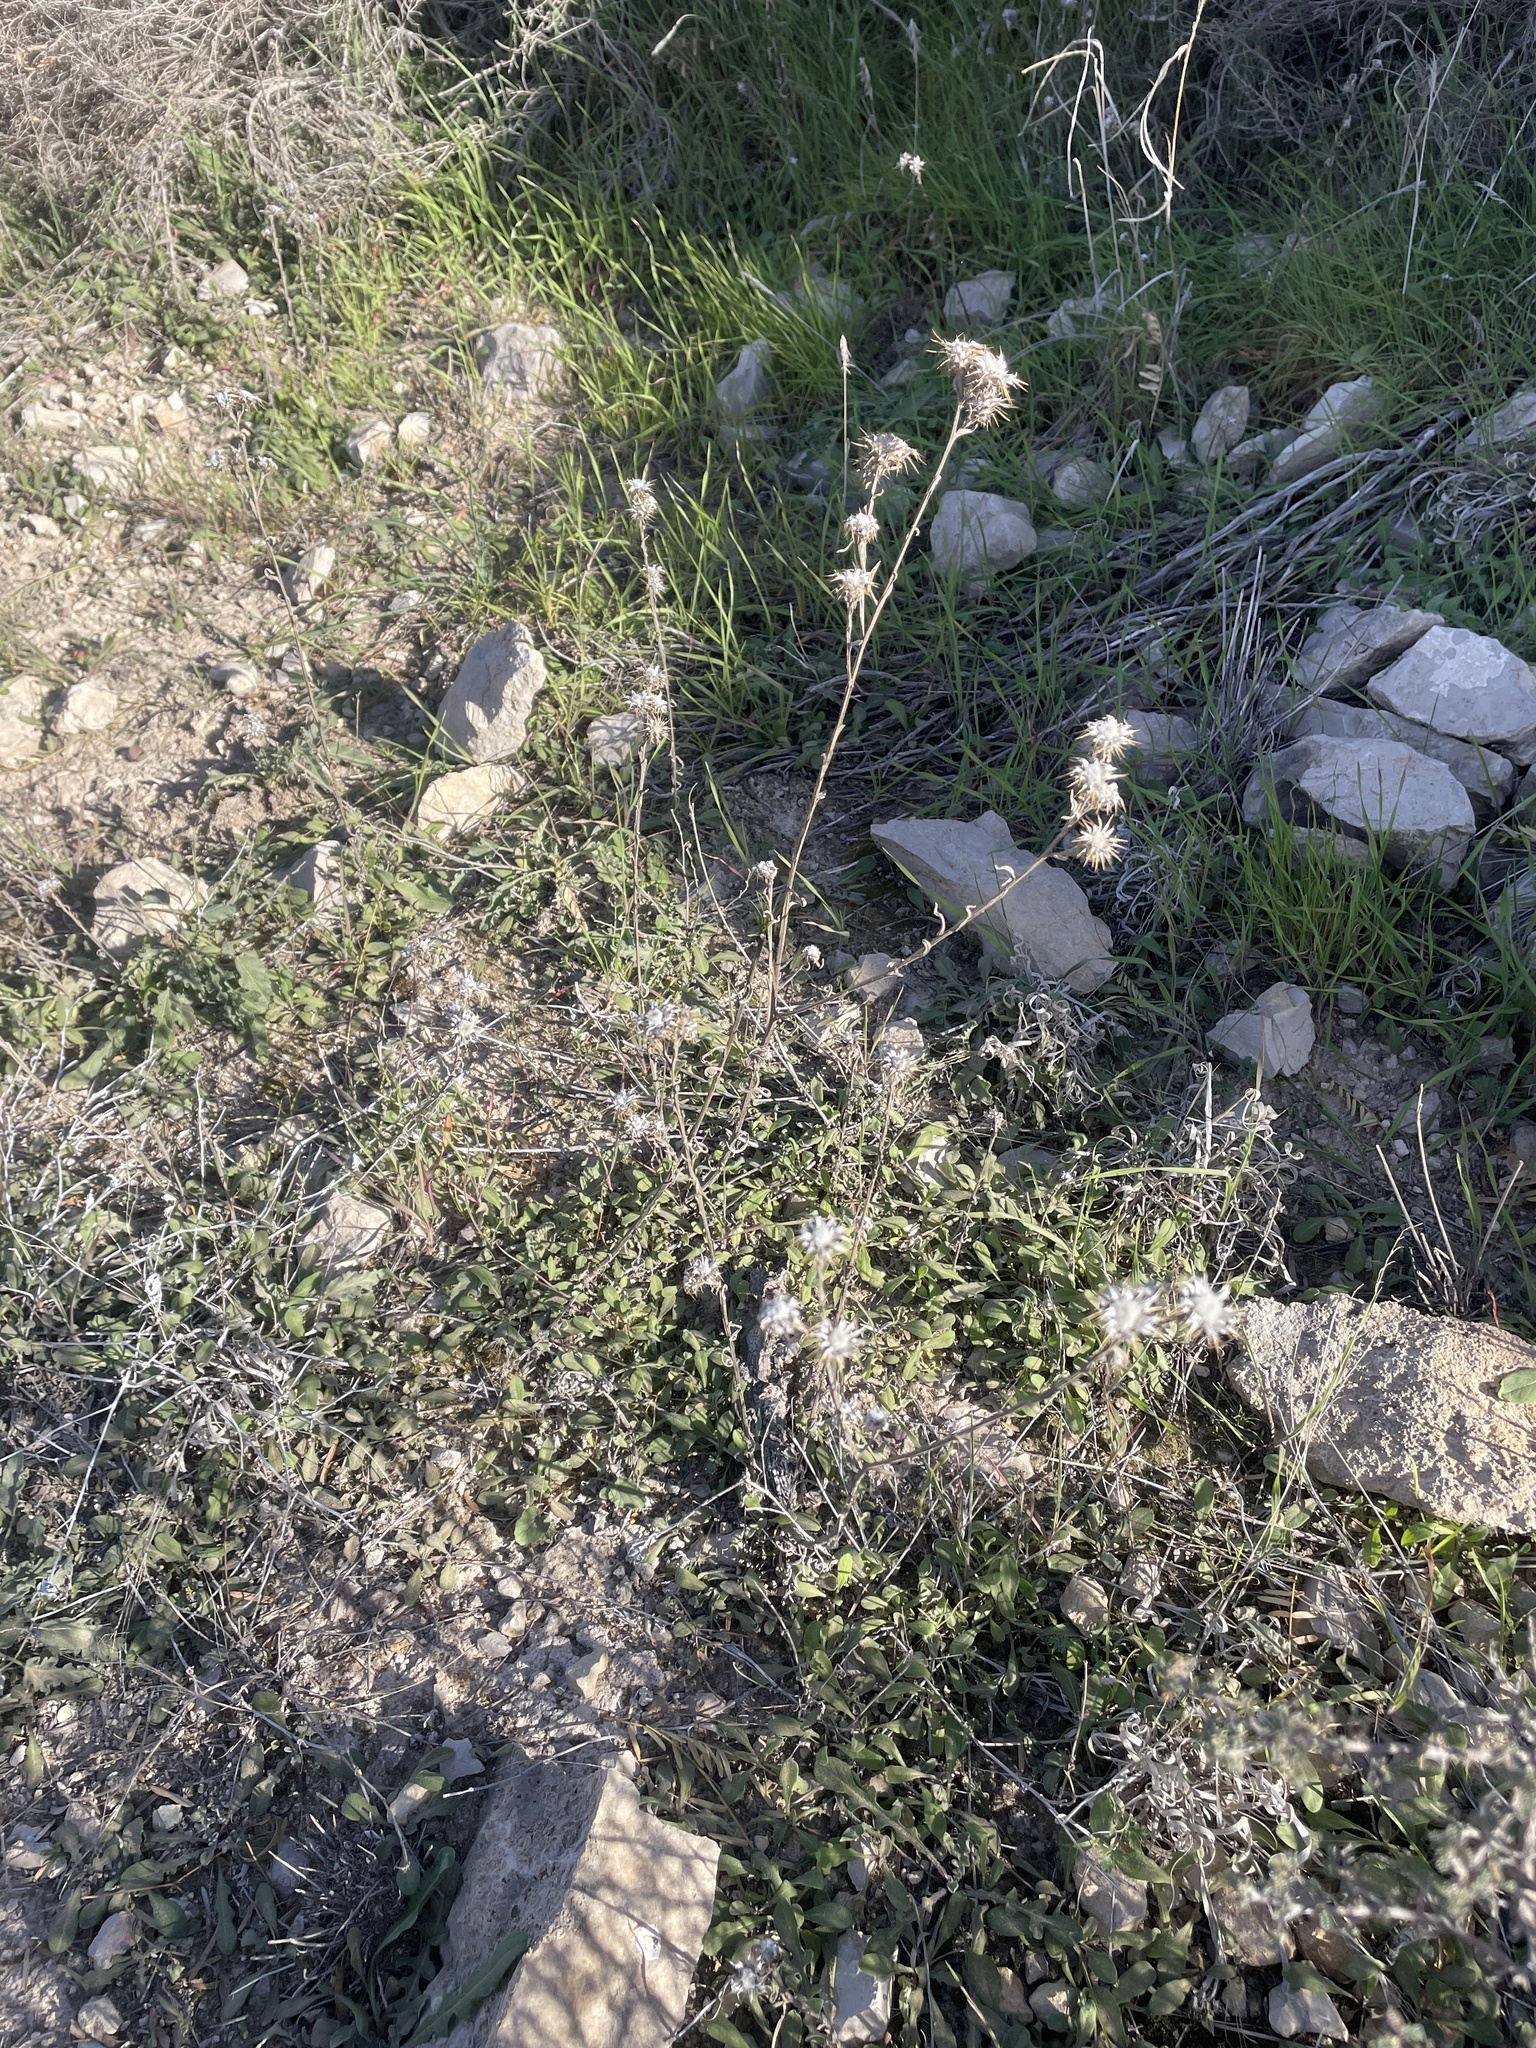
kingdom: Plantae
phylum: Tracheophyta
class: Magnoliopsida
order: Asterales
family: Asteraceae
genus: Centaurea
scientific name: Centaurea melitensis
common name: Maltese star-thistle
